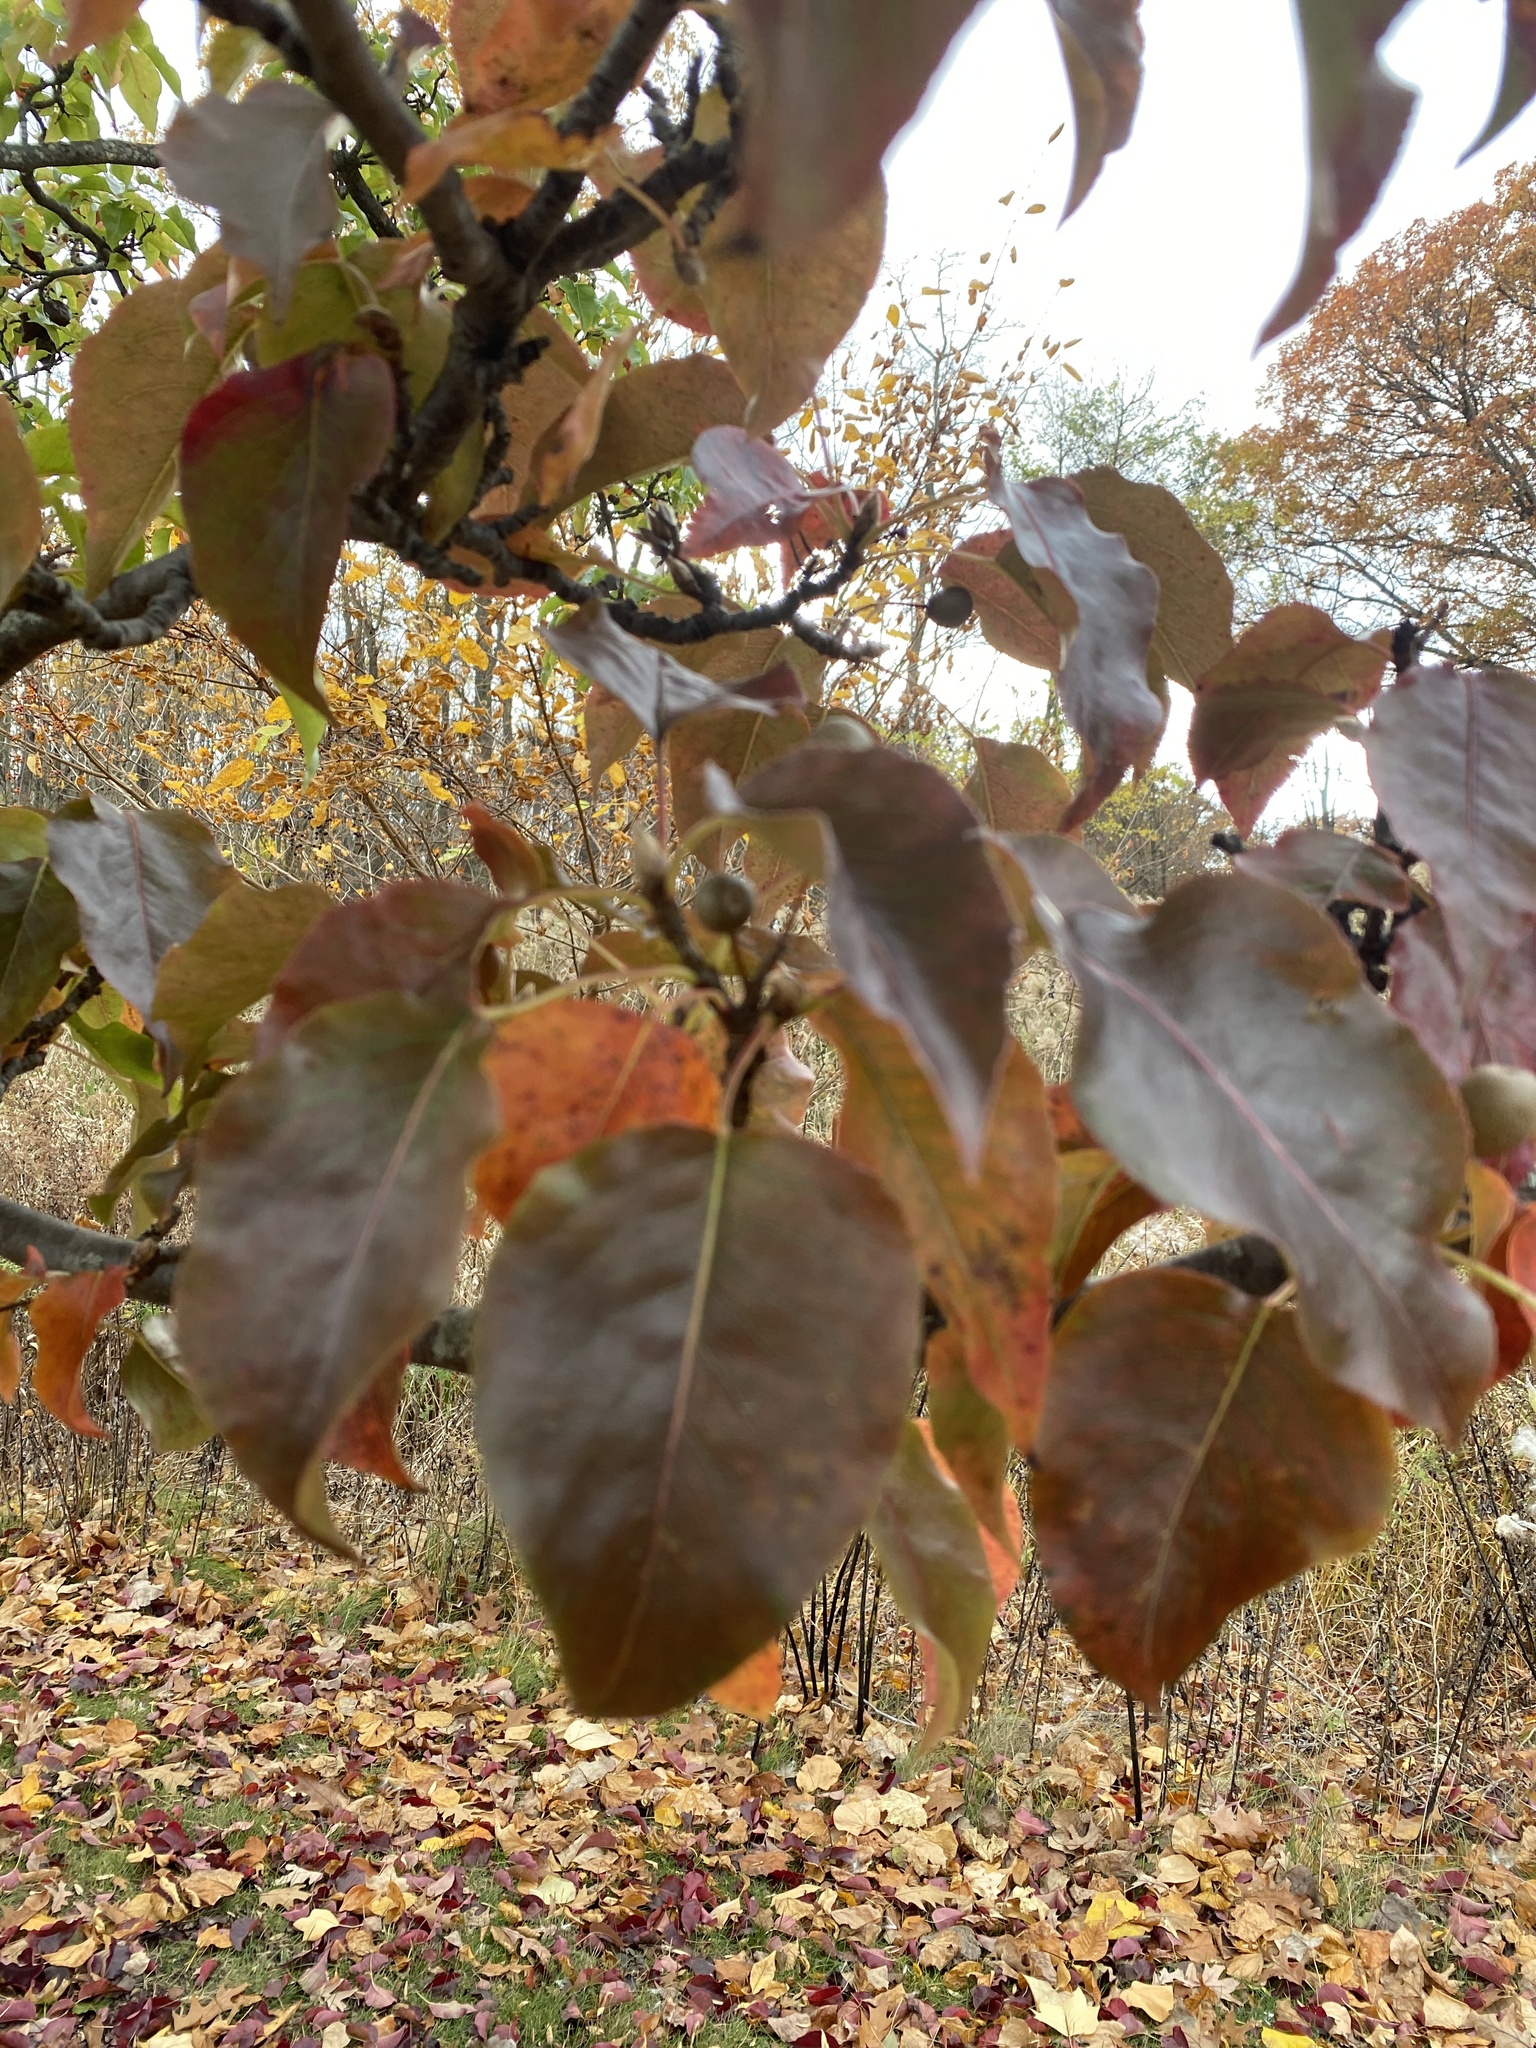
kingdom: Plantae
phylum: Tracheophyta
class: Magnoliopsida
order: Rosales
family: Rosaceae
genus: Pyrus
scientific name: Pyrus calleryana
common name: Callery pear
